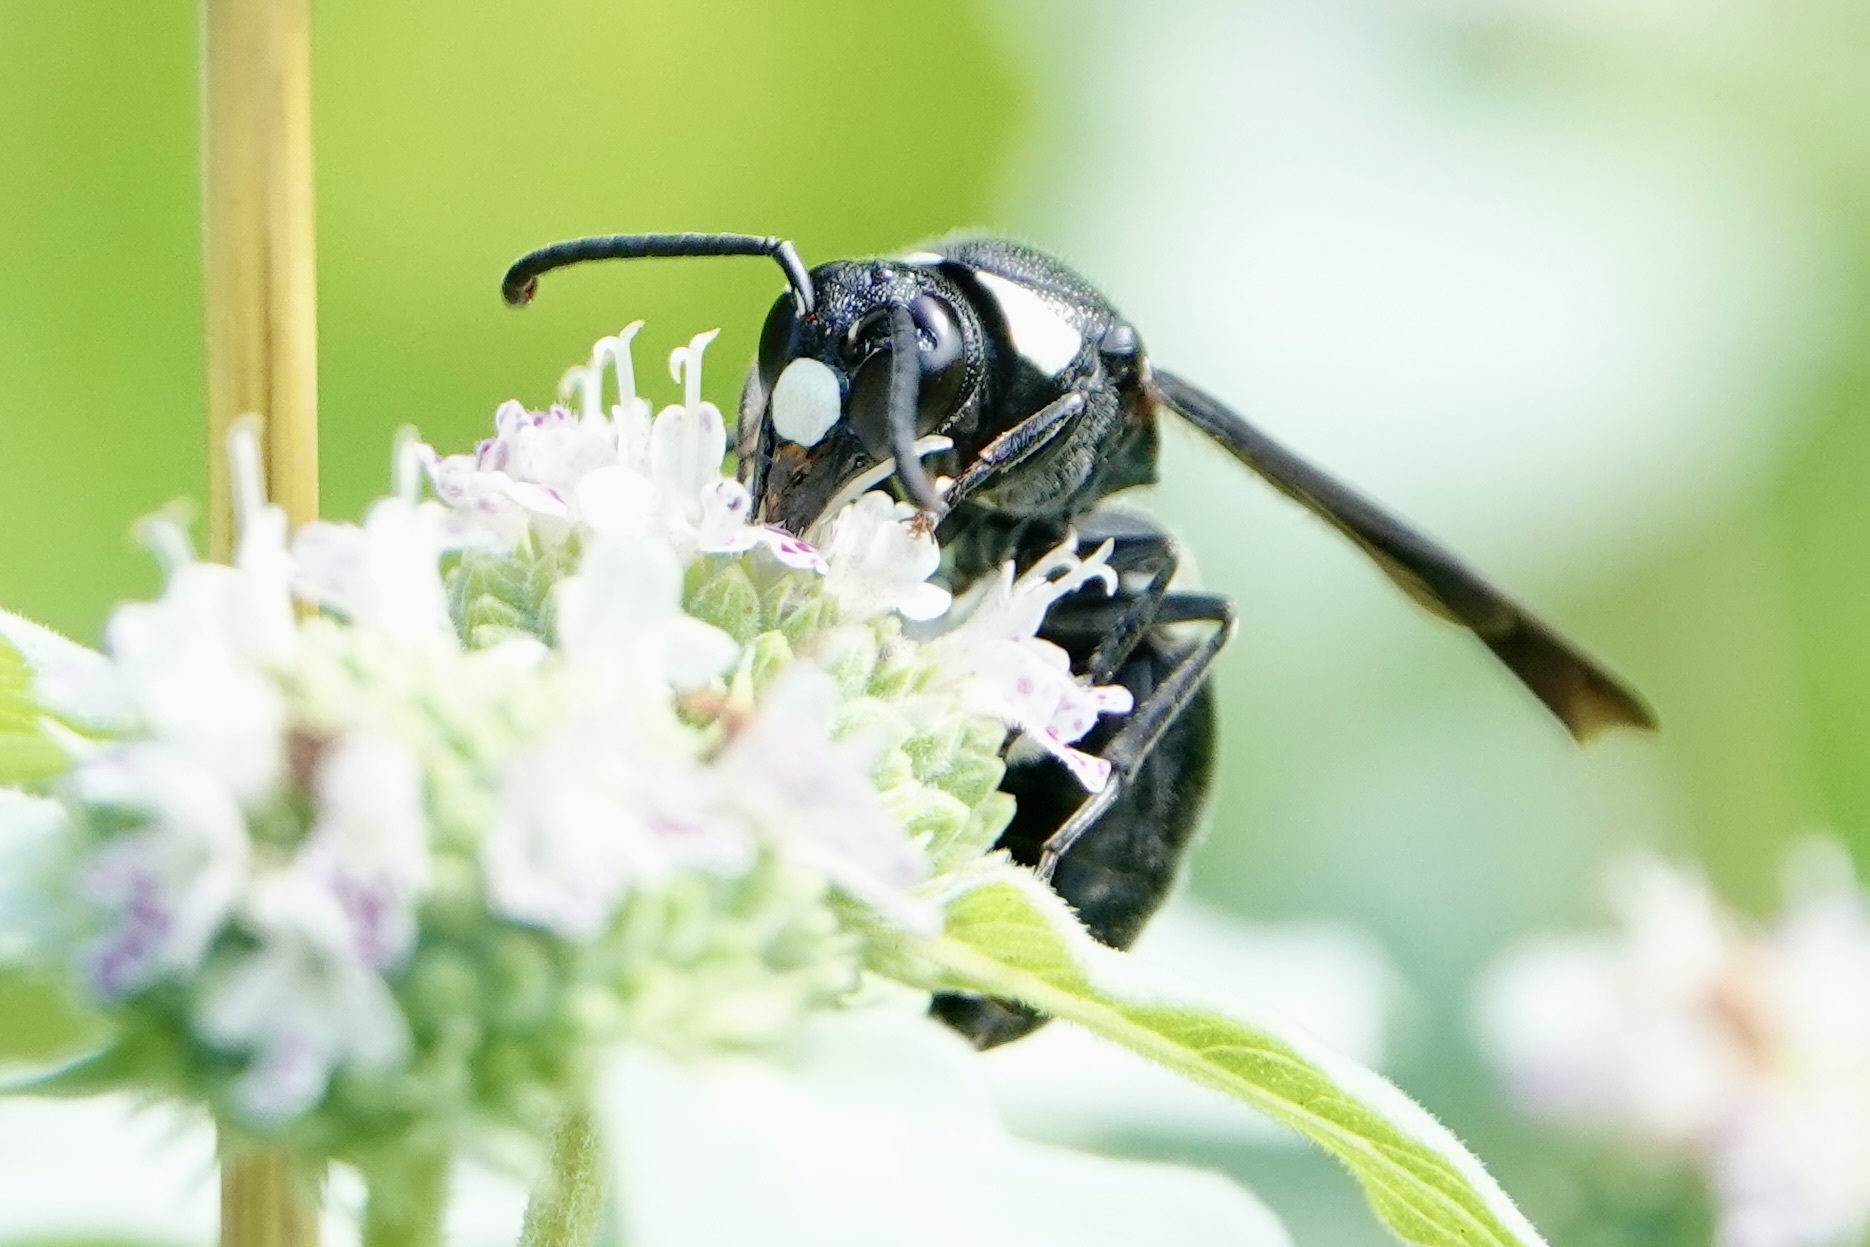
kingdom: Animalia
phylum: Arthropoda
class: Insecta
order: Hymenoptera
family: Eumenidae
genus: Monobia
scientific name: Monobia quadridens
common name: Four-toothed mason wasp
